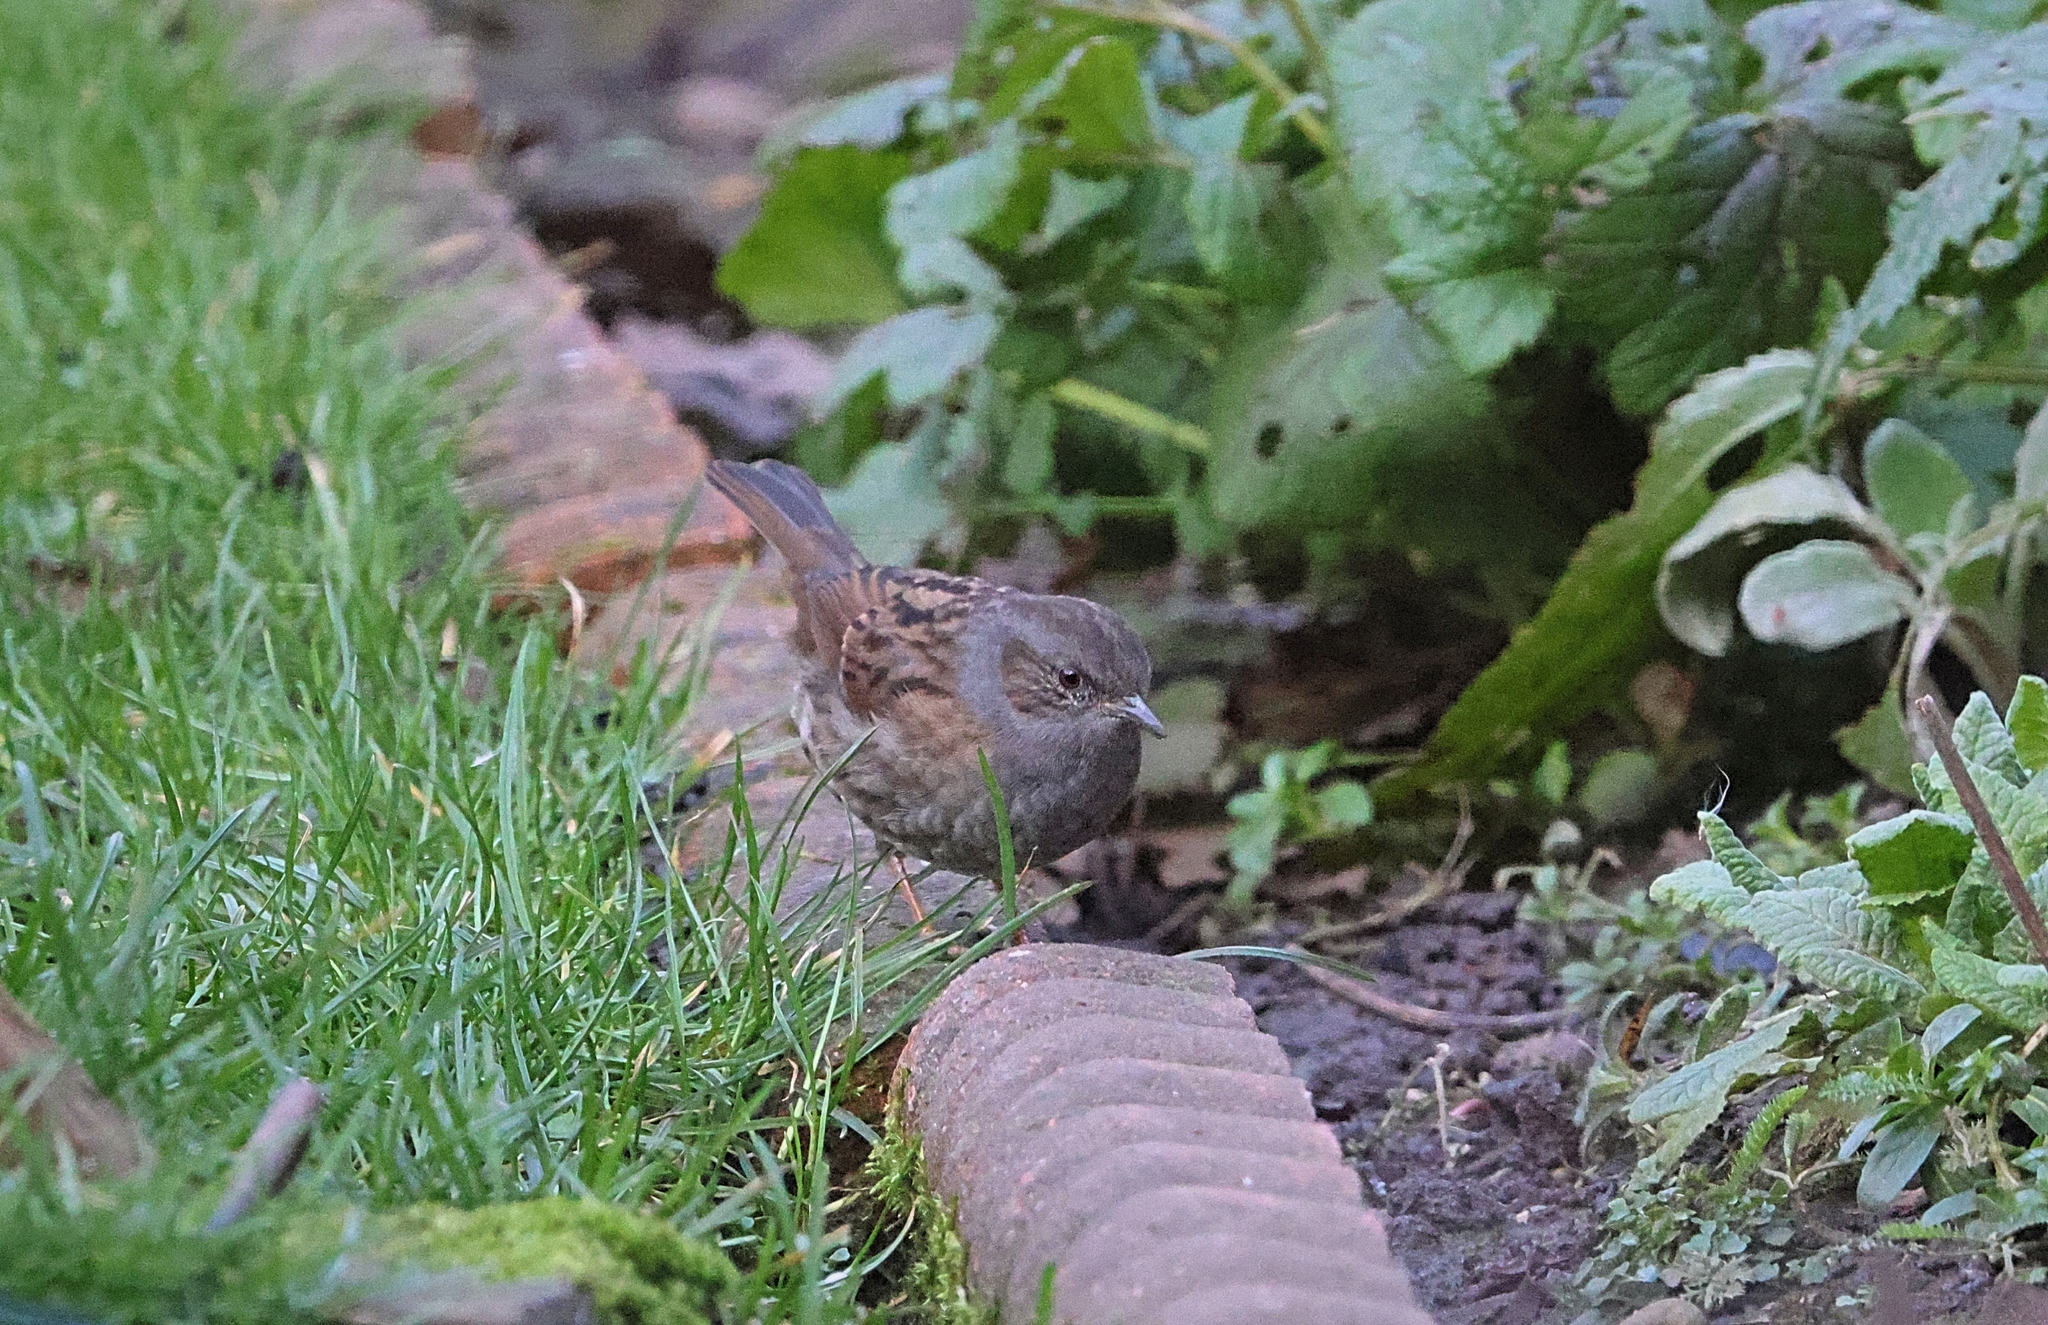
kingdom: Animalia
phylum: Chordata
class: Aves
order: Passeriformes
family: Prunellidae
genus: Prunella
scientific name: Prunella modularis
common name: Dunnock
